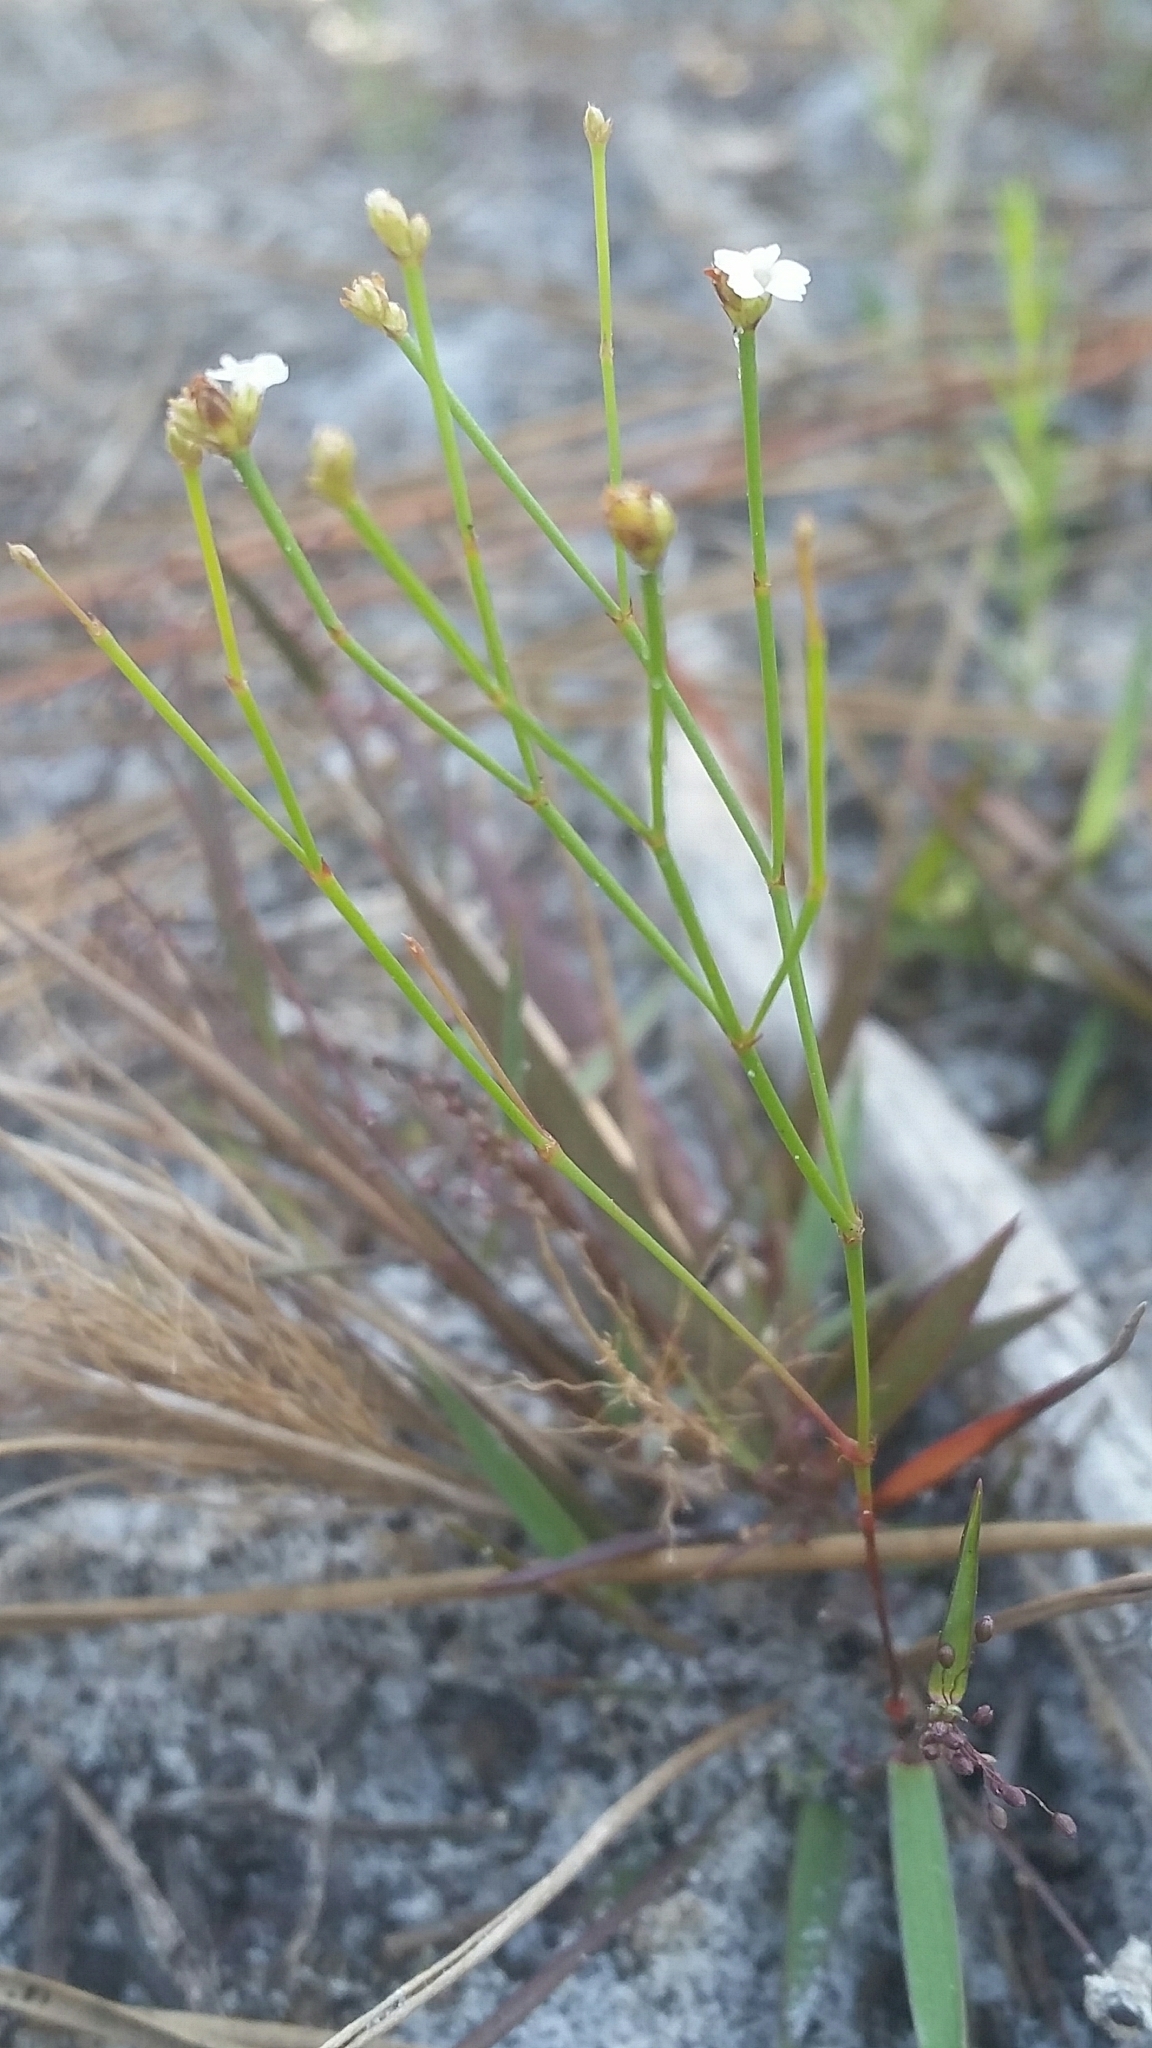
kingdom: Plantae
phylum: Tracheophyta
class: Magnoliopsida
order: Caryophyllales
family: Caryophyllaceae
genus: Stipulicida
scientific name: Stipulicida setacea
